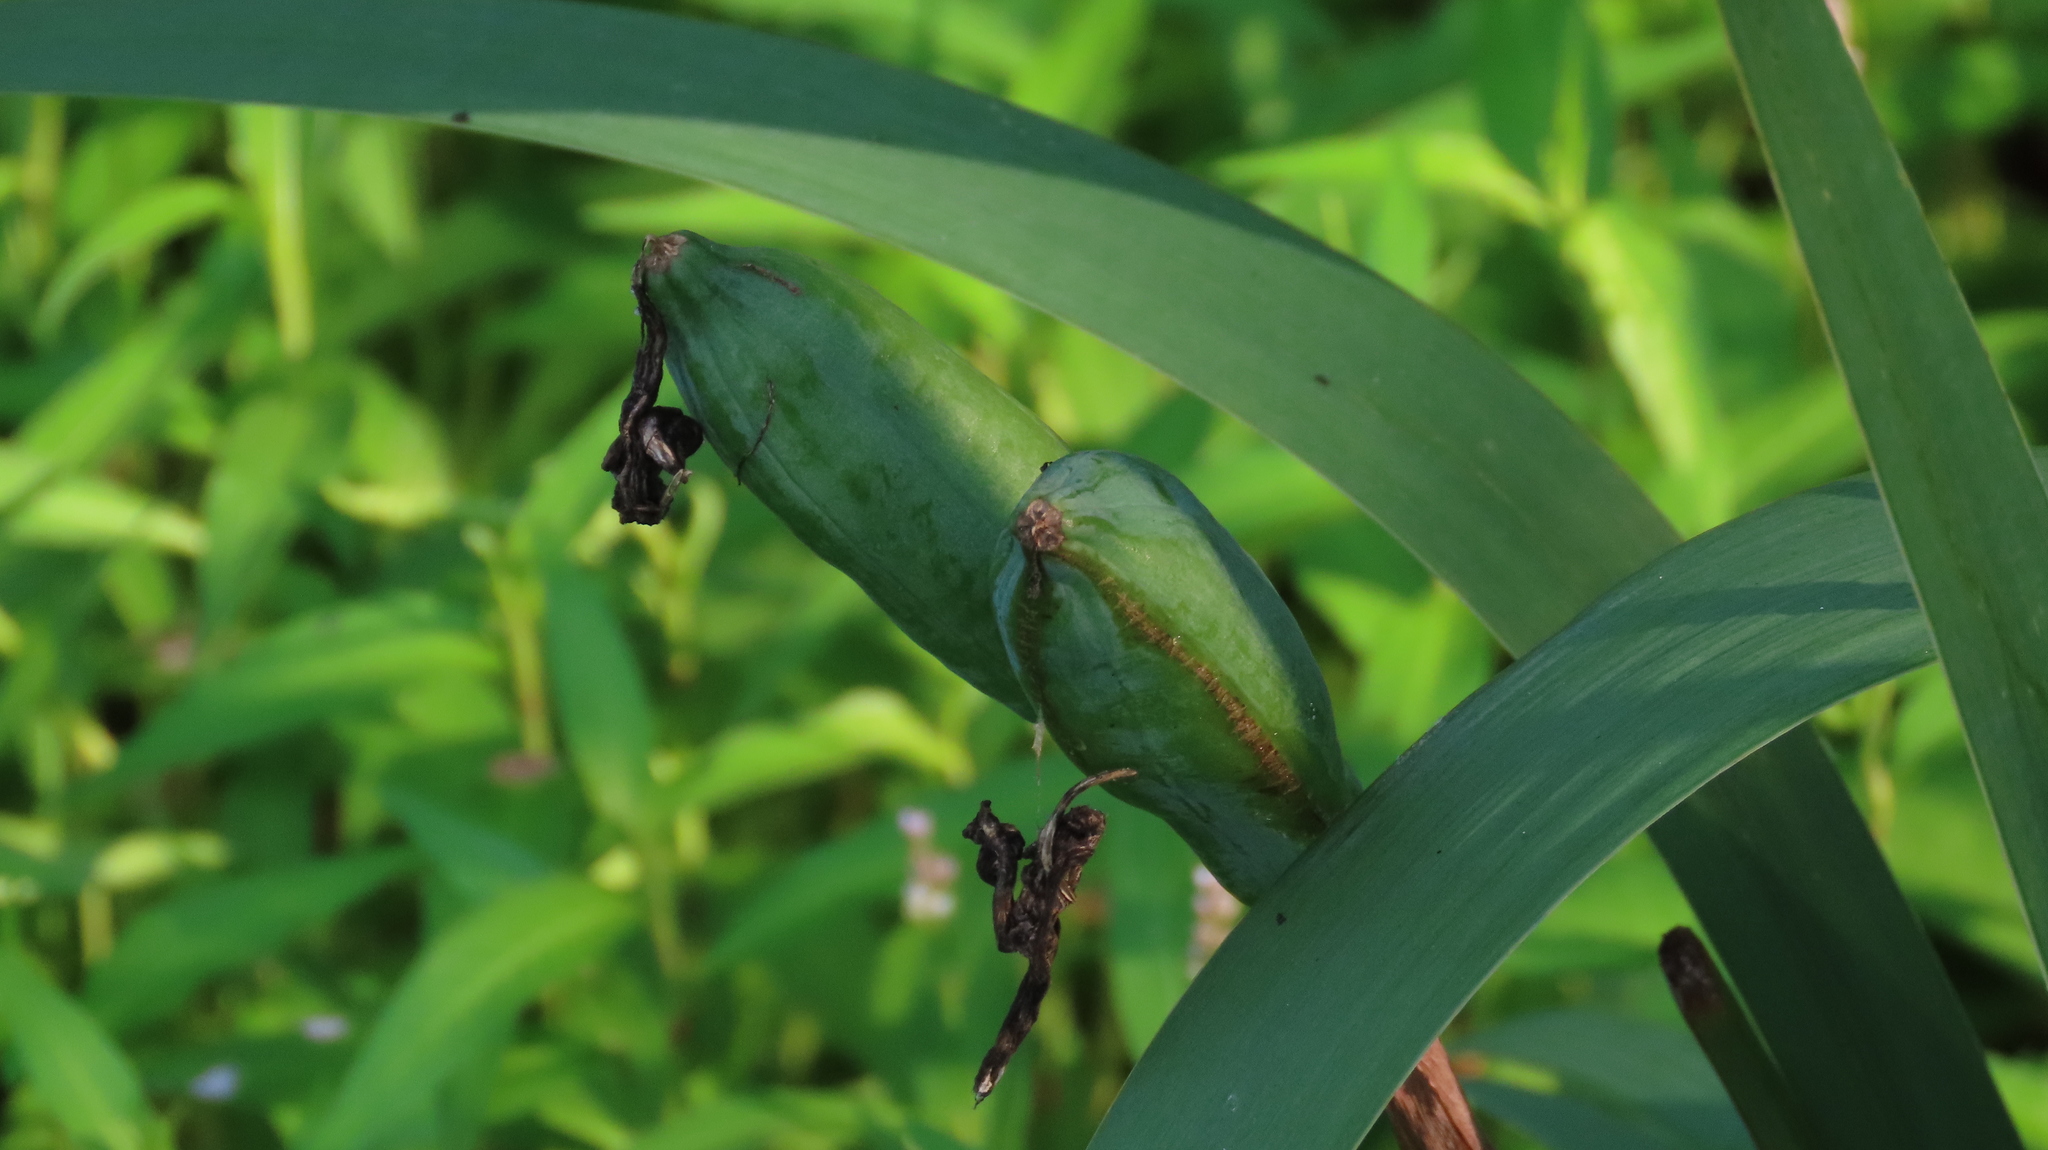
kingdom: Plantae
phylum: Tracheophyta
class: Liliopsida
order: Asparagales
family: Iridaceae
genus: Iris
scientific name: Iris pseudacorus
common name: Yellow flag
